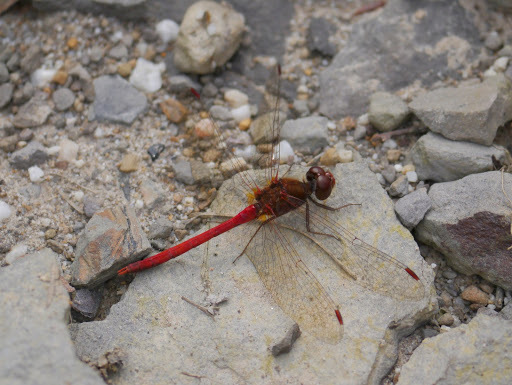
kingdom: Animalia
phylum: Arthropoda
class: Insecta
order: Odonata
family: Libellulidae
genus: Sympetrum
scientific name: Sympetrum vicinum
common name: Autumn meadowhawk
